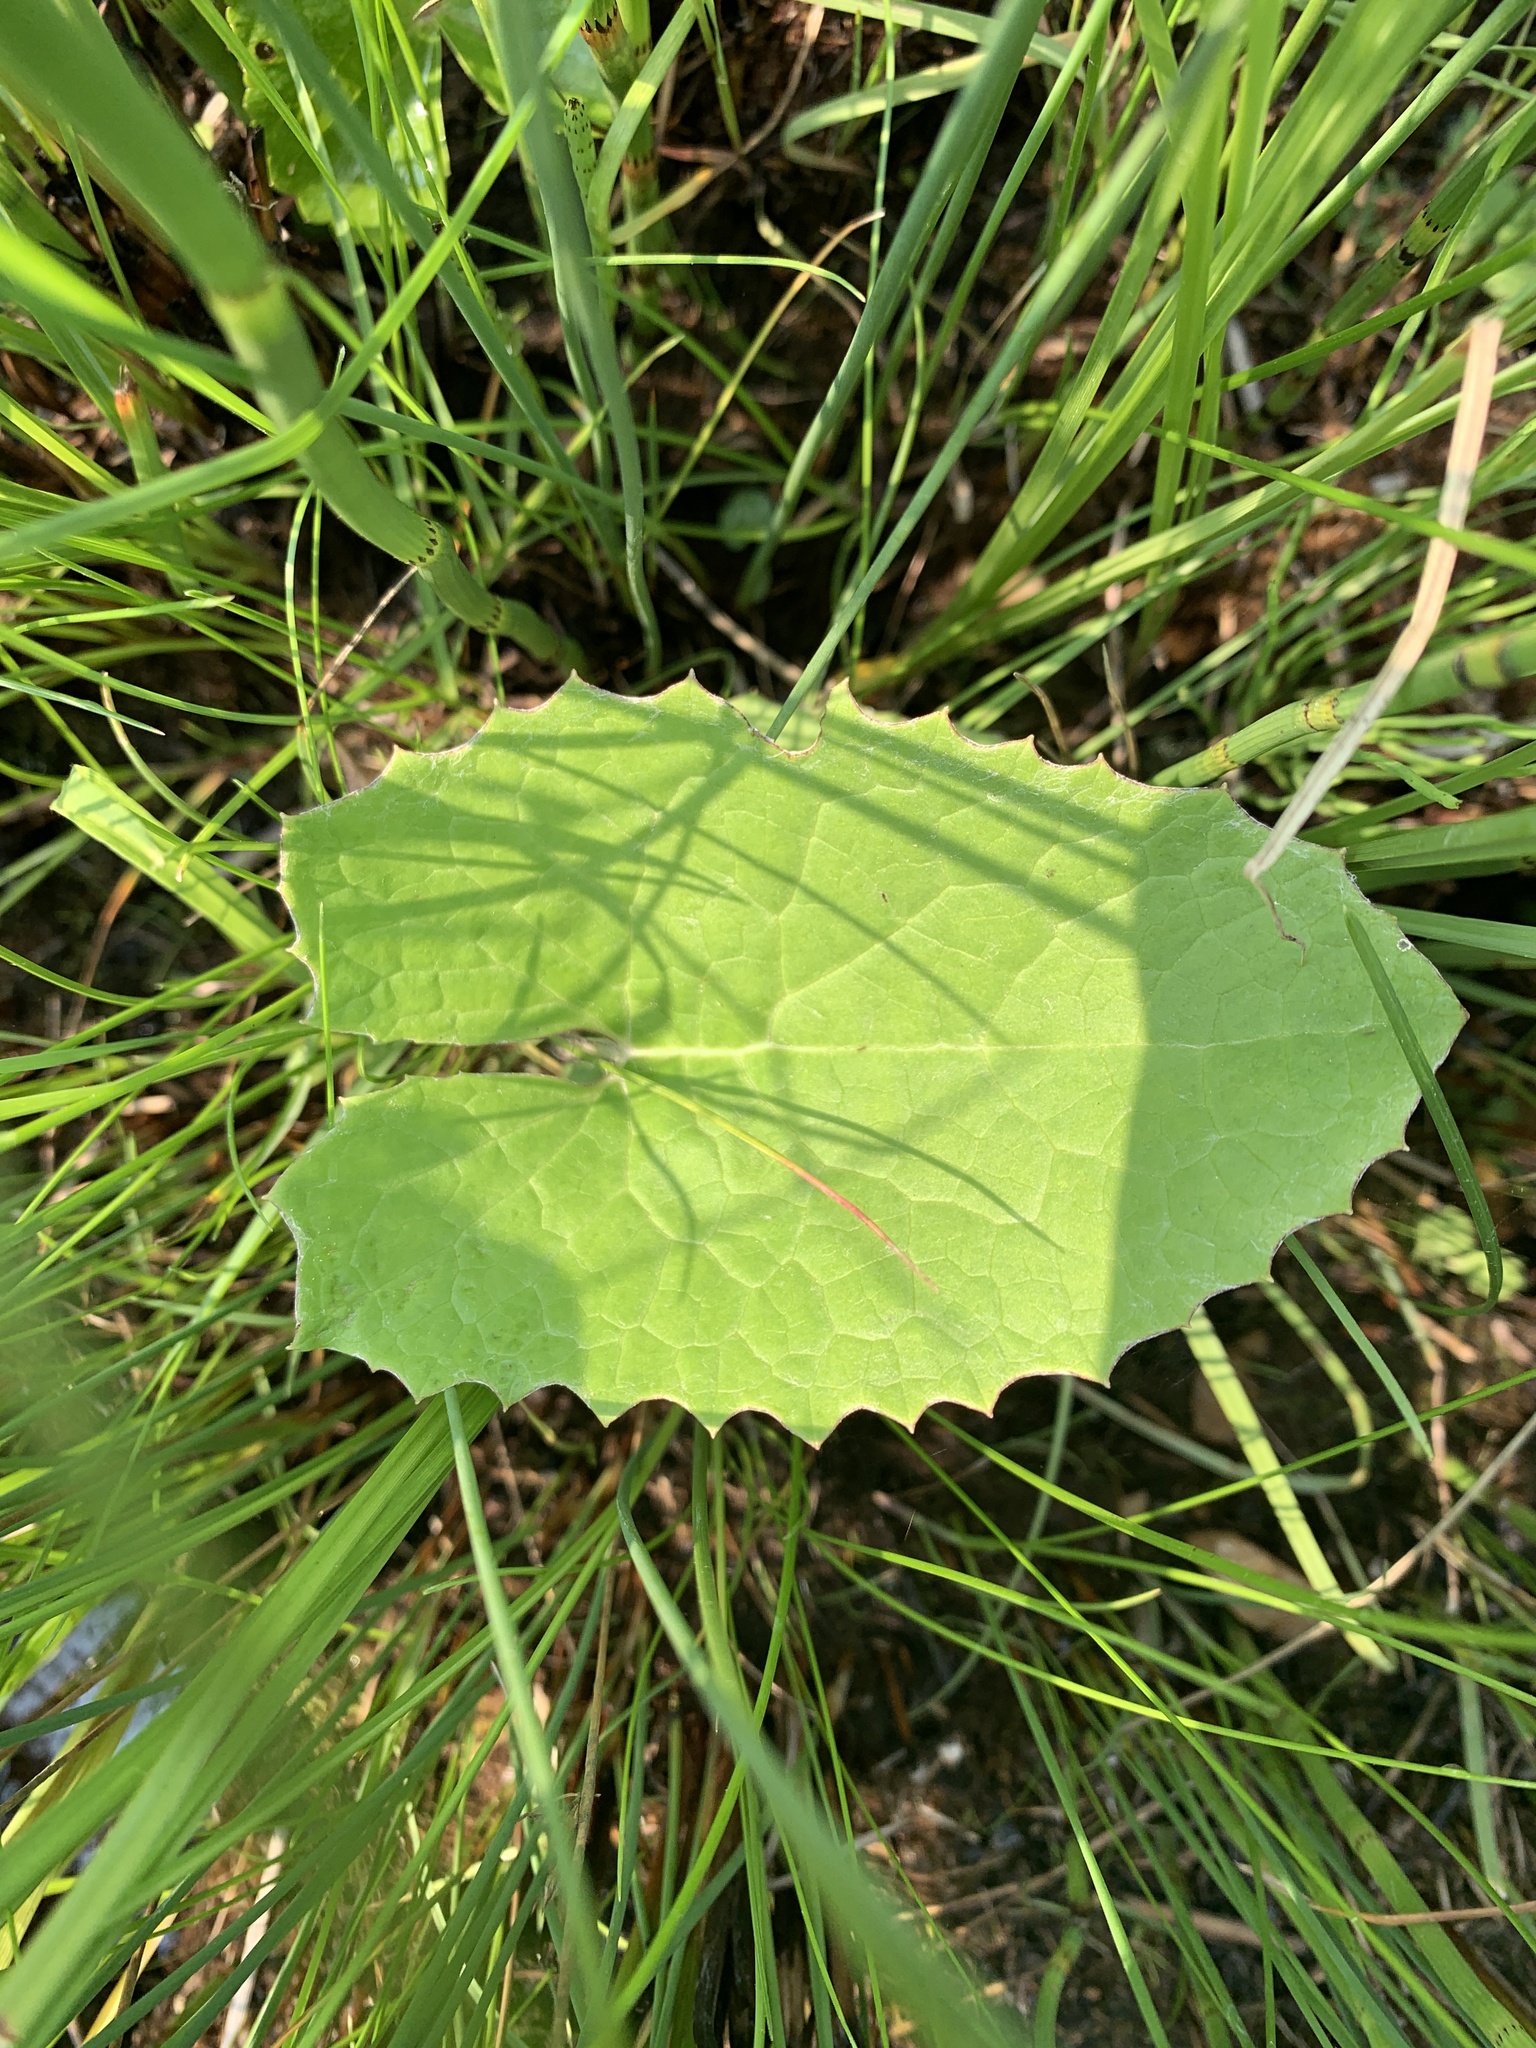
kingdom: Plantae
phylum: Tracheophyta
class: Magnoliopsida
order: Asterales
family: Asteraceae
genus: Petasites
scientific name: Petasites frigidus
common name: Arctic butterbur
